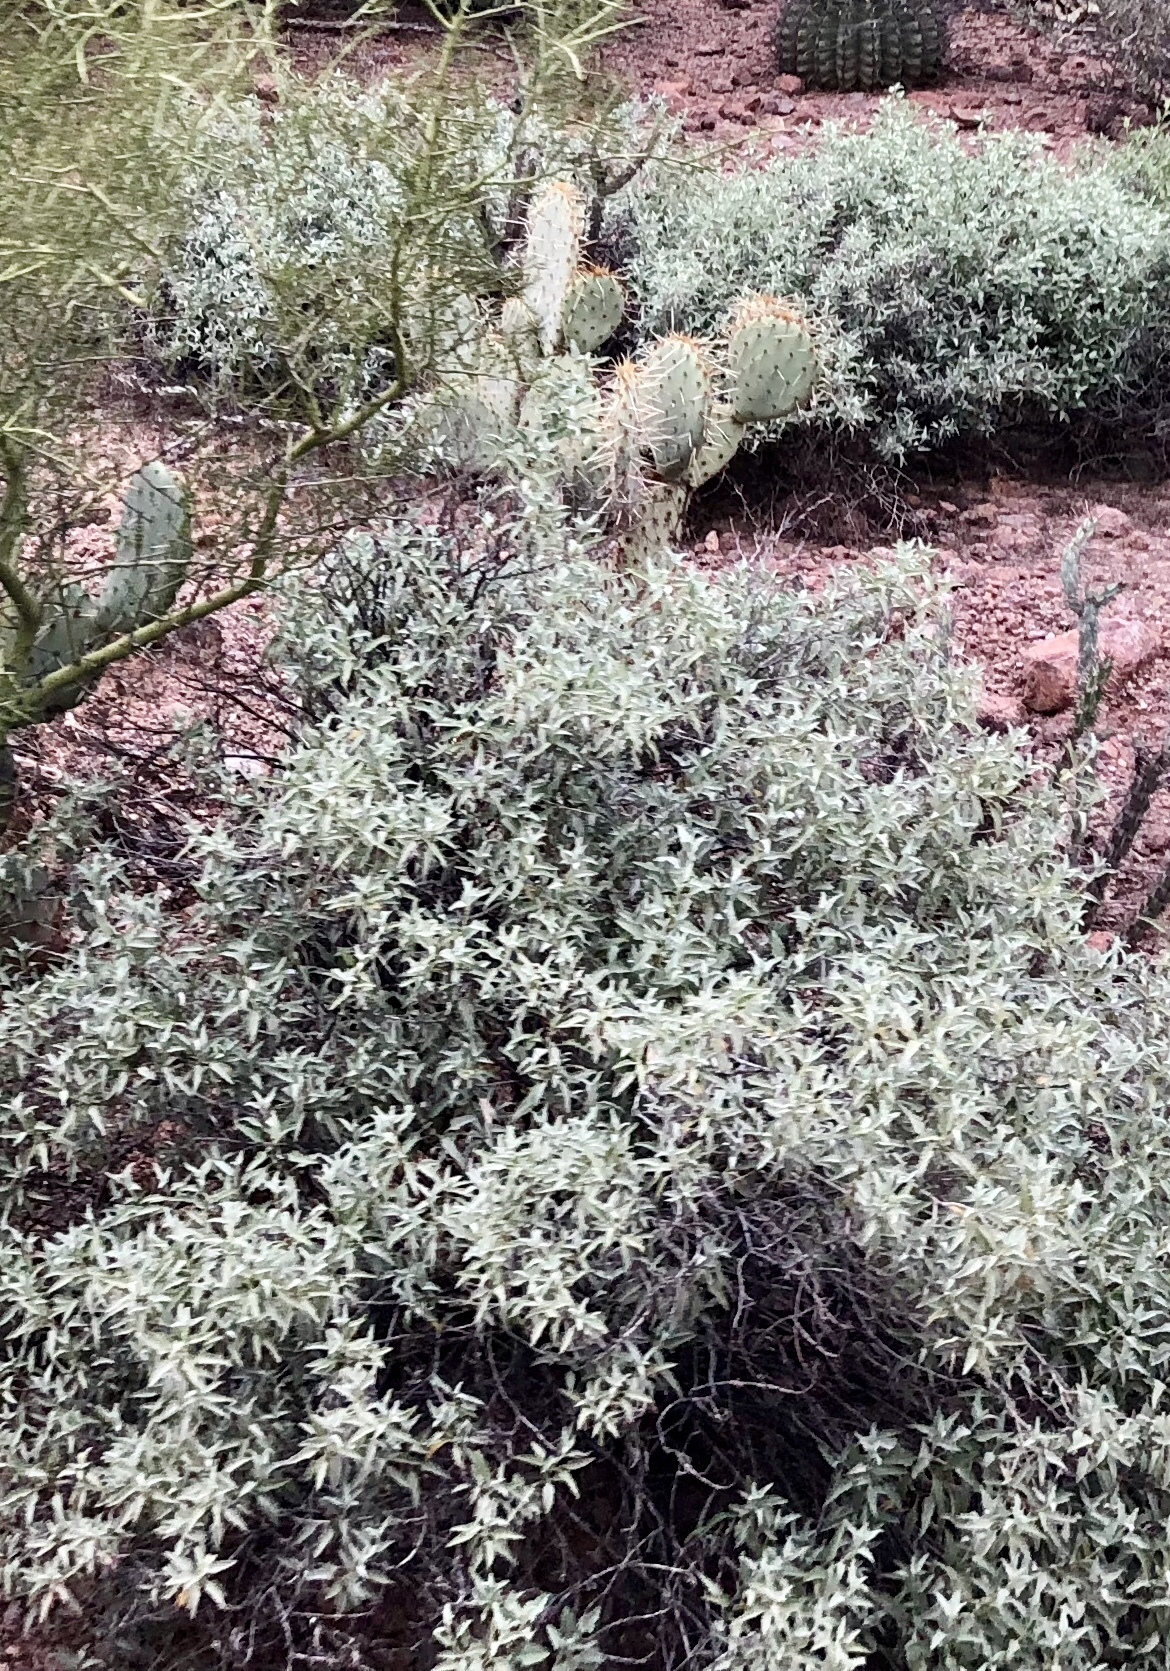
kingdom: Plantae
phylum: Tracheophyta
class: Magnoliopsida
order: Asterales
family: Asteraceae
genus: Ambrosia
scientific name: Ambrosia deltoidea
